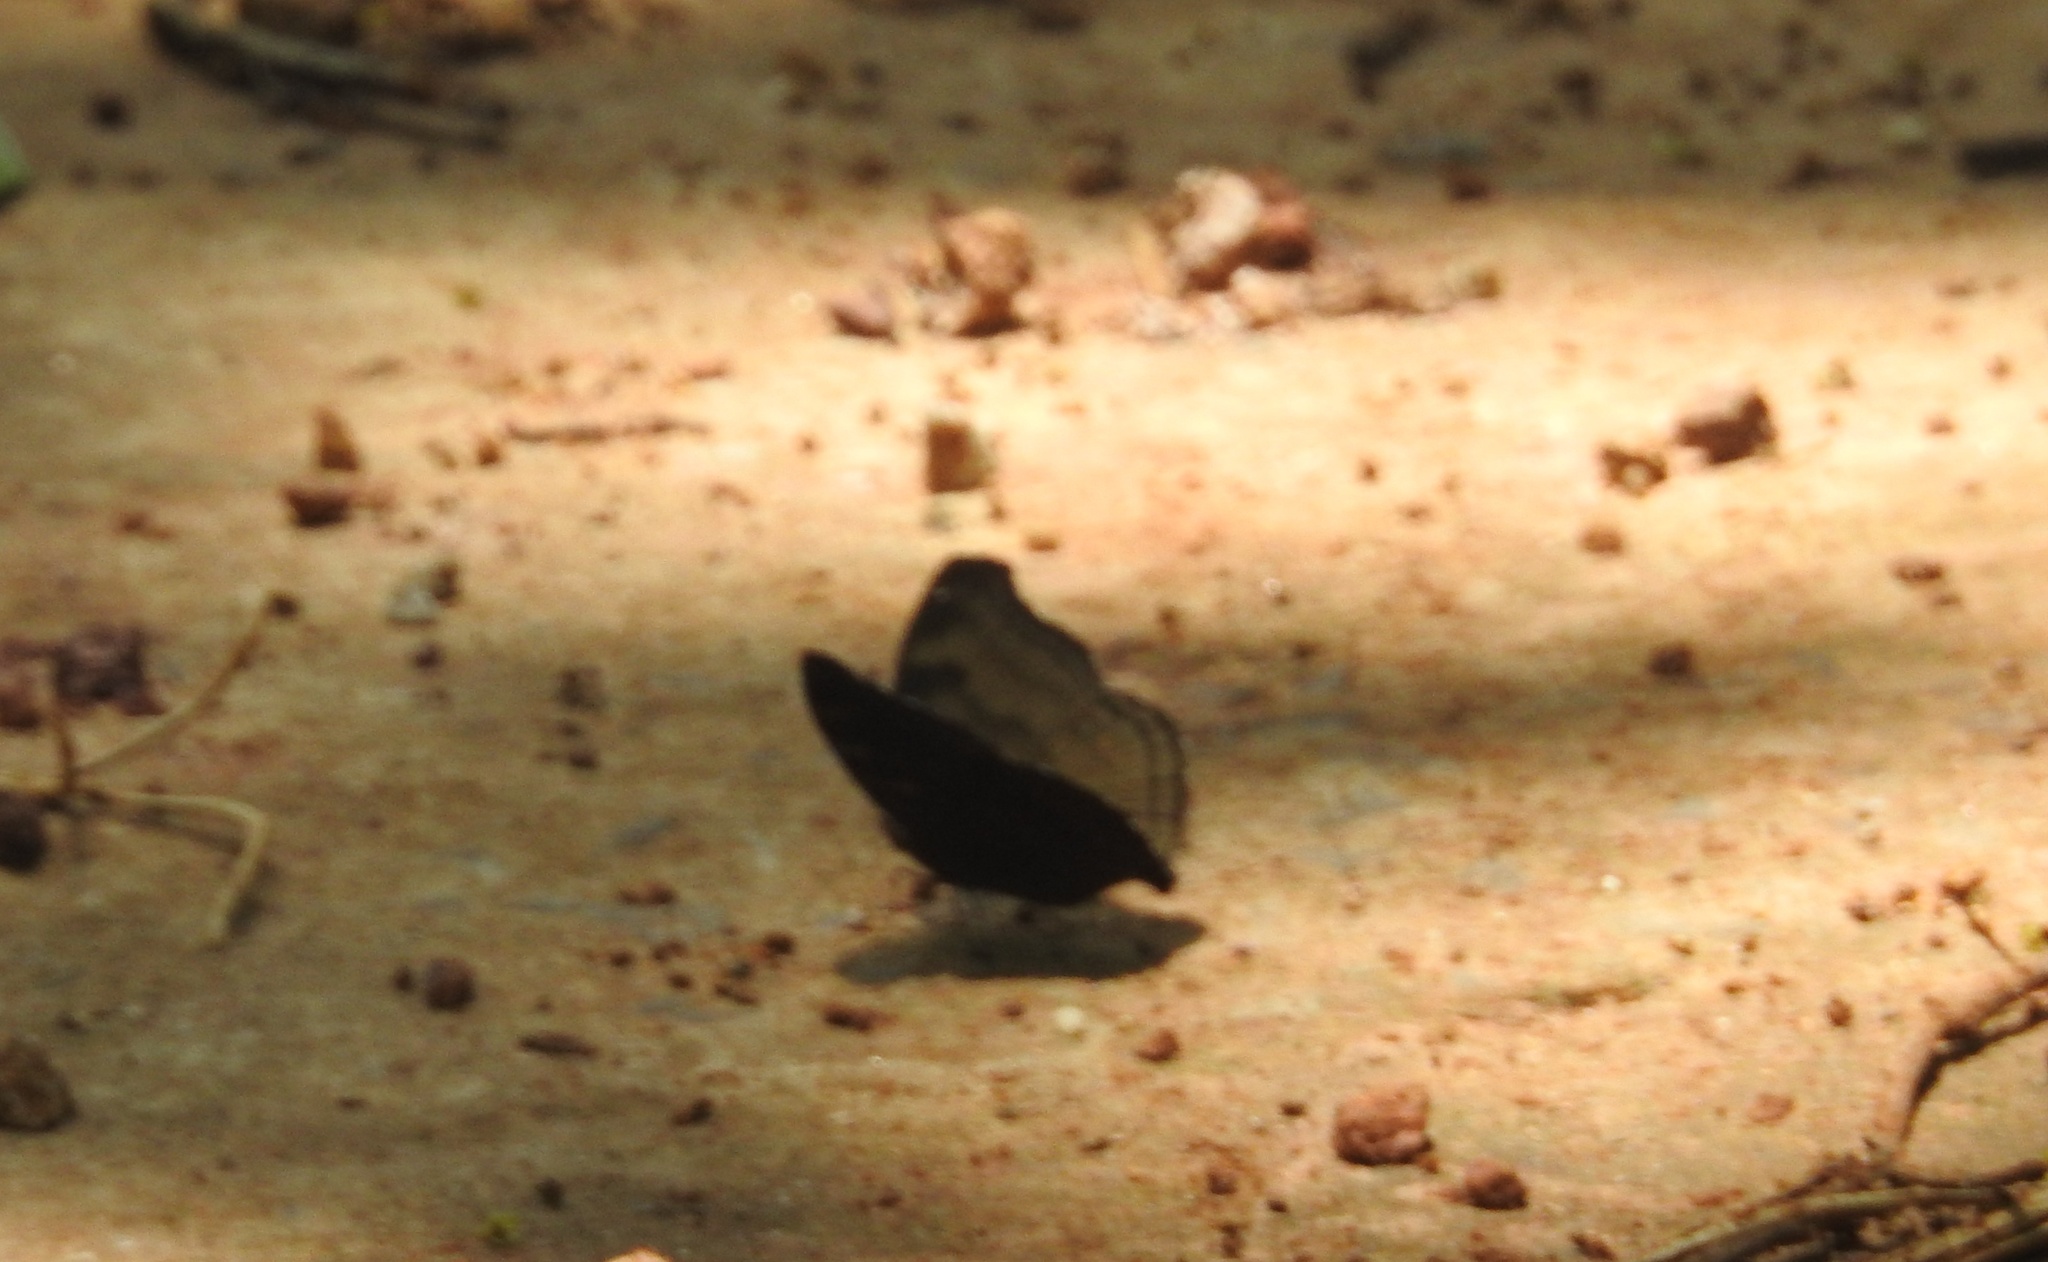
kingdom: Animalia
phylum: Arthropoda
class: Insecta
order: Lepidoptera
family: Nymphalidae
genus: Junonia
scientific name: Junonia iphita
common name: Chocolate pansy
